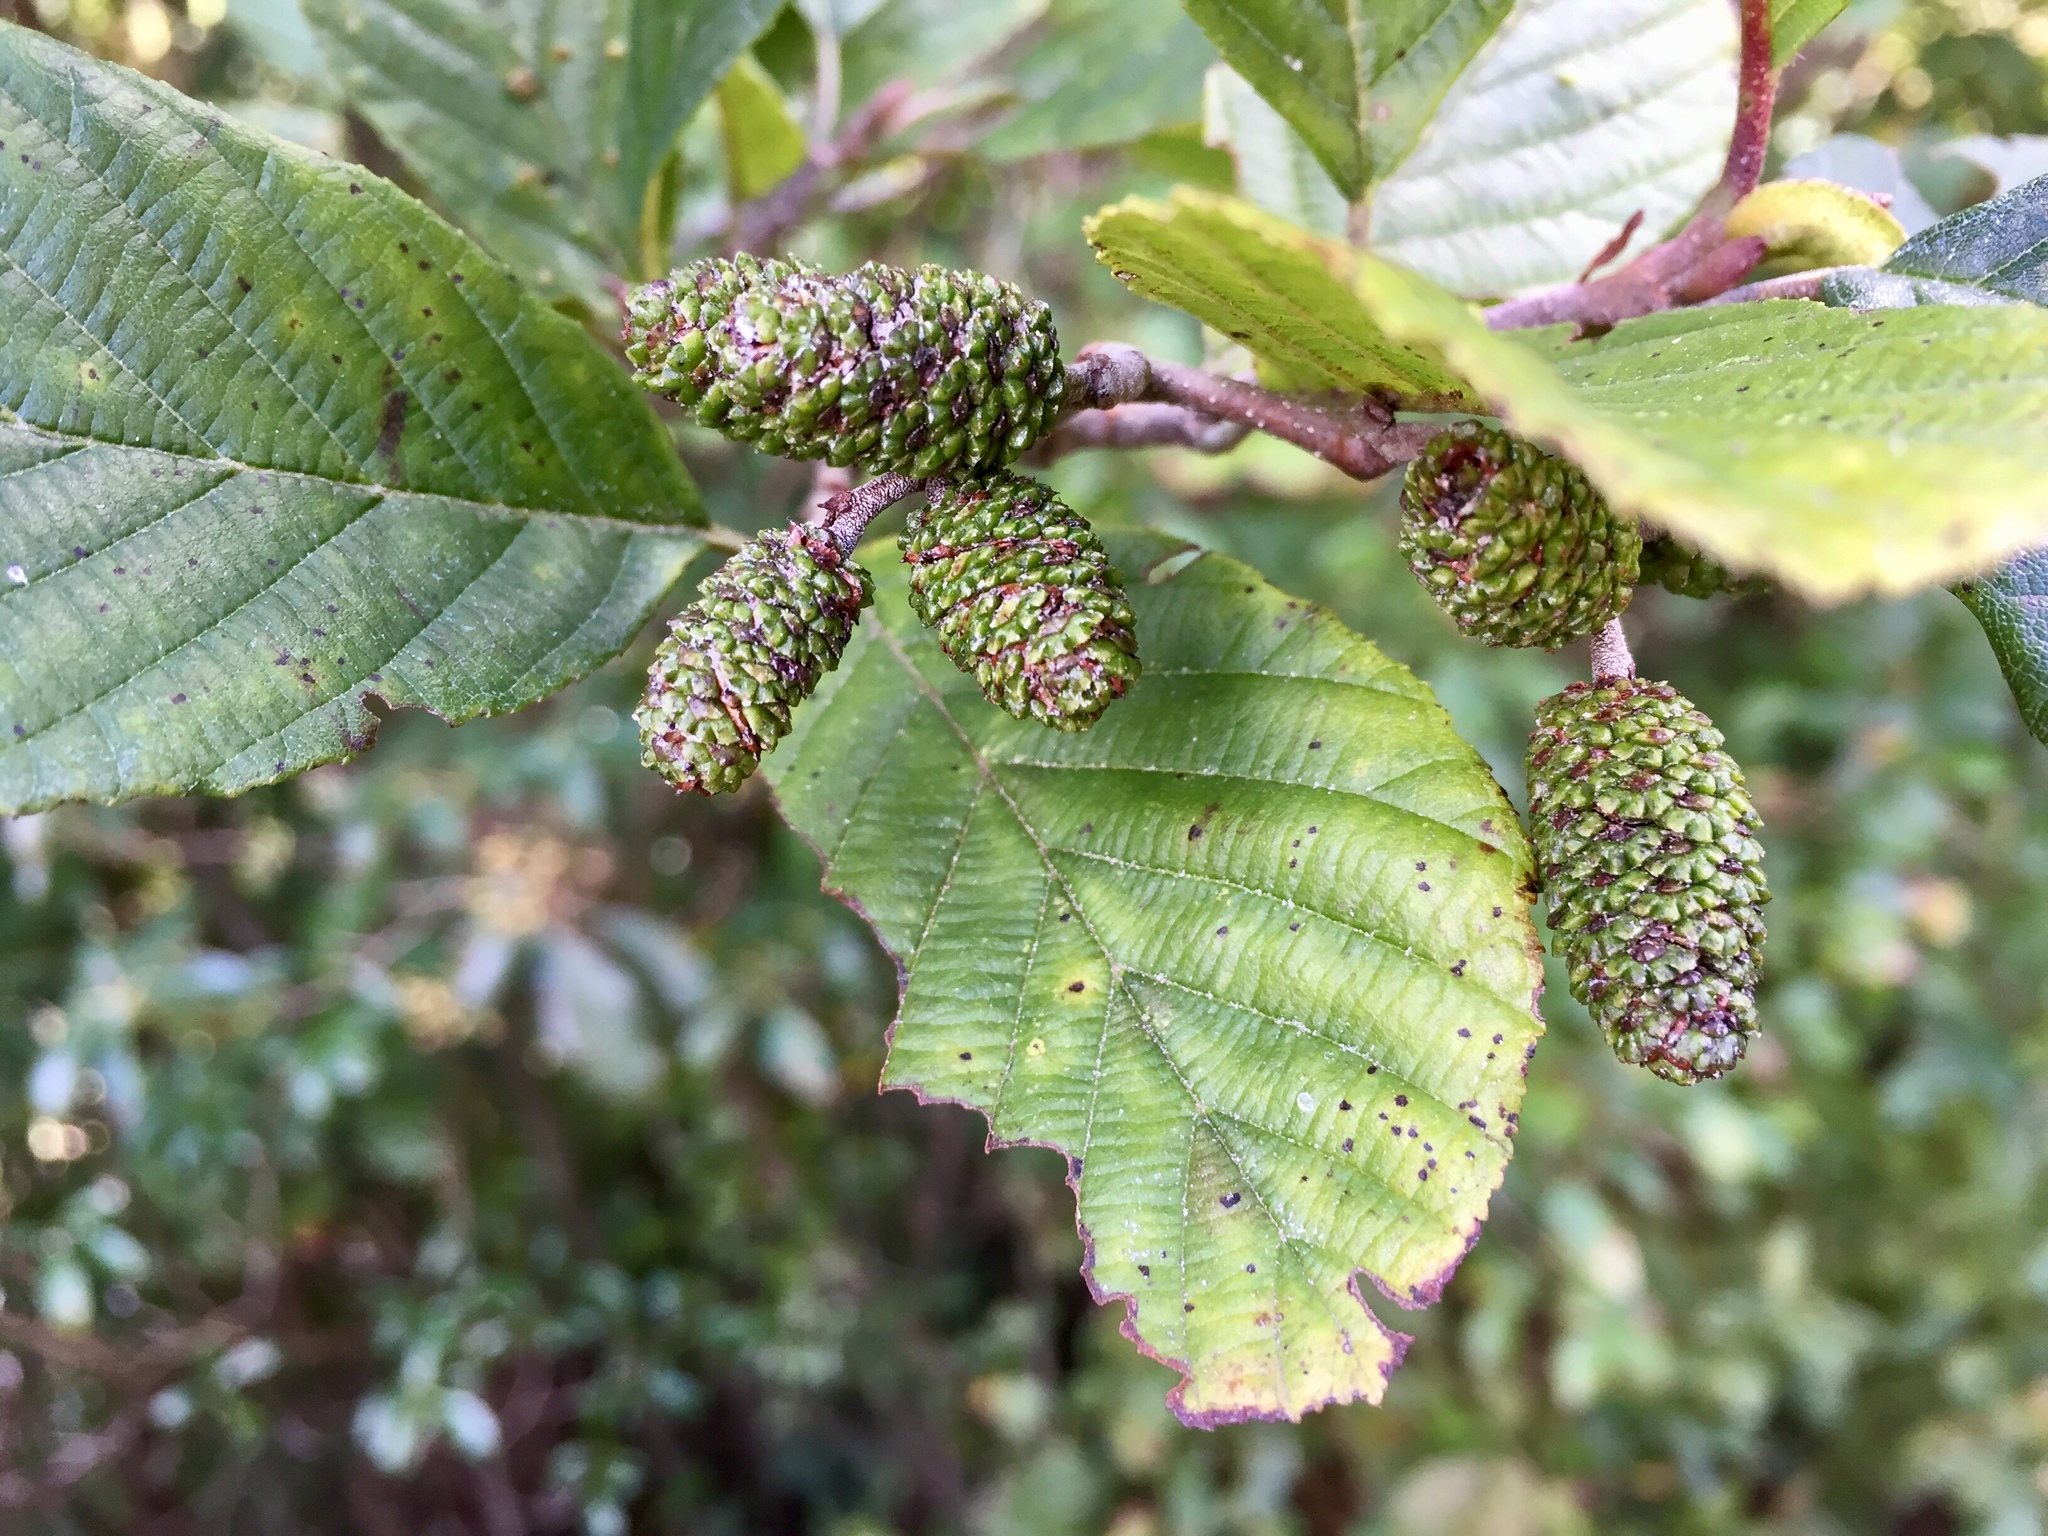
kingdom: Plantae
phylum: Tracheophyta
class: Magnoliopsida
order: Fagales
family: Betulaceae
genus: Alnus
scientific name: Alnus incana
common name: Grey alder
